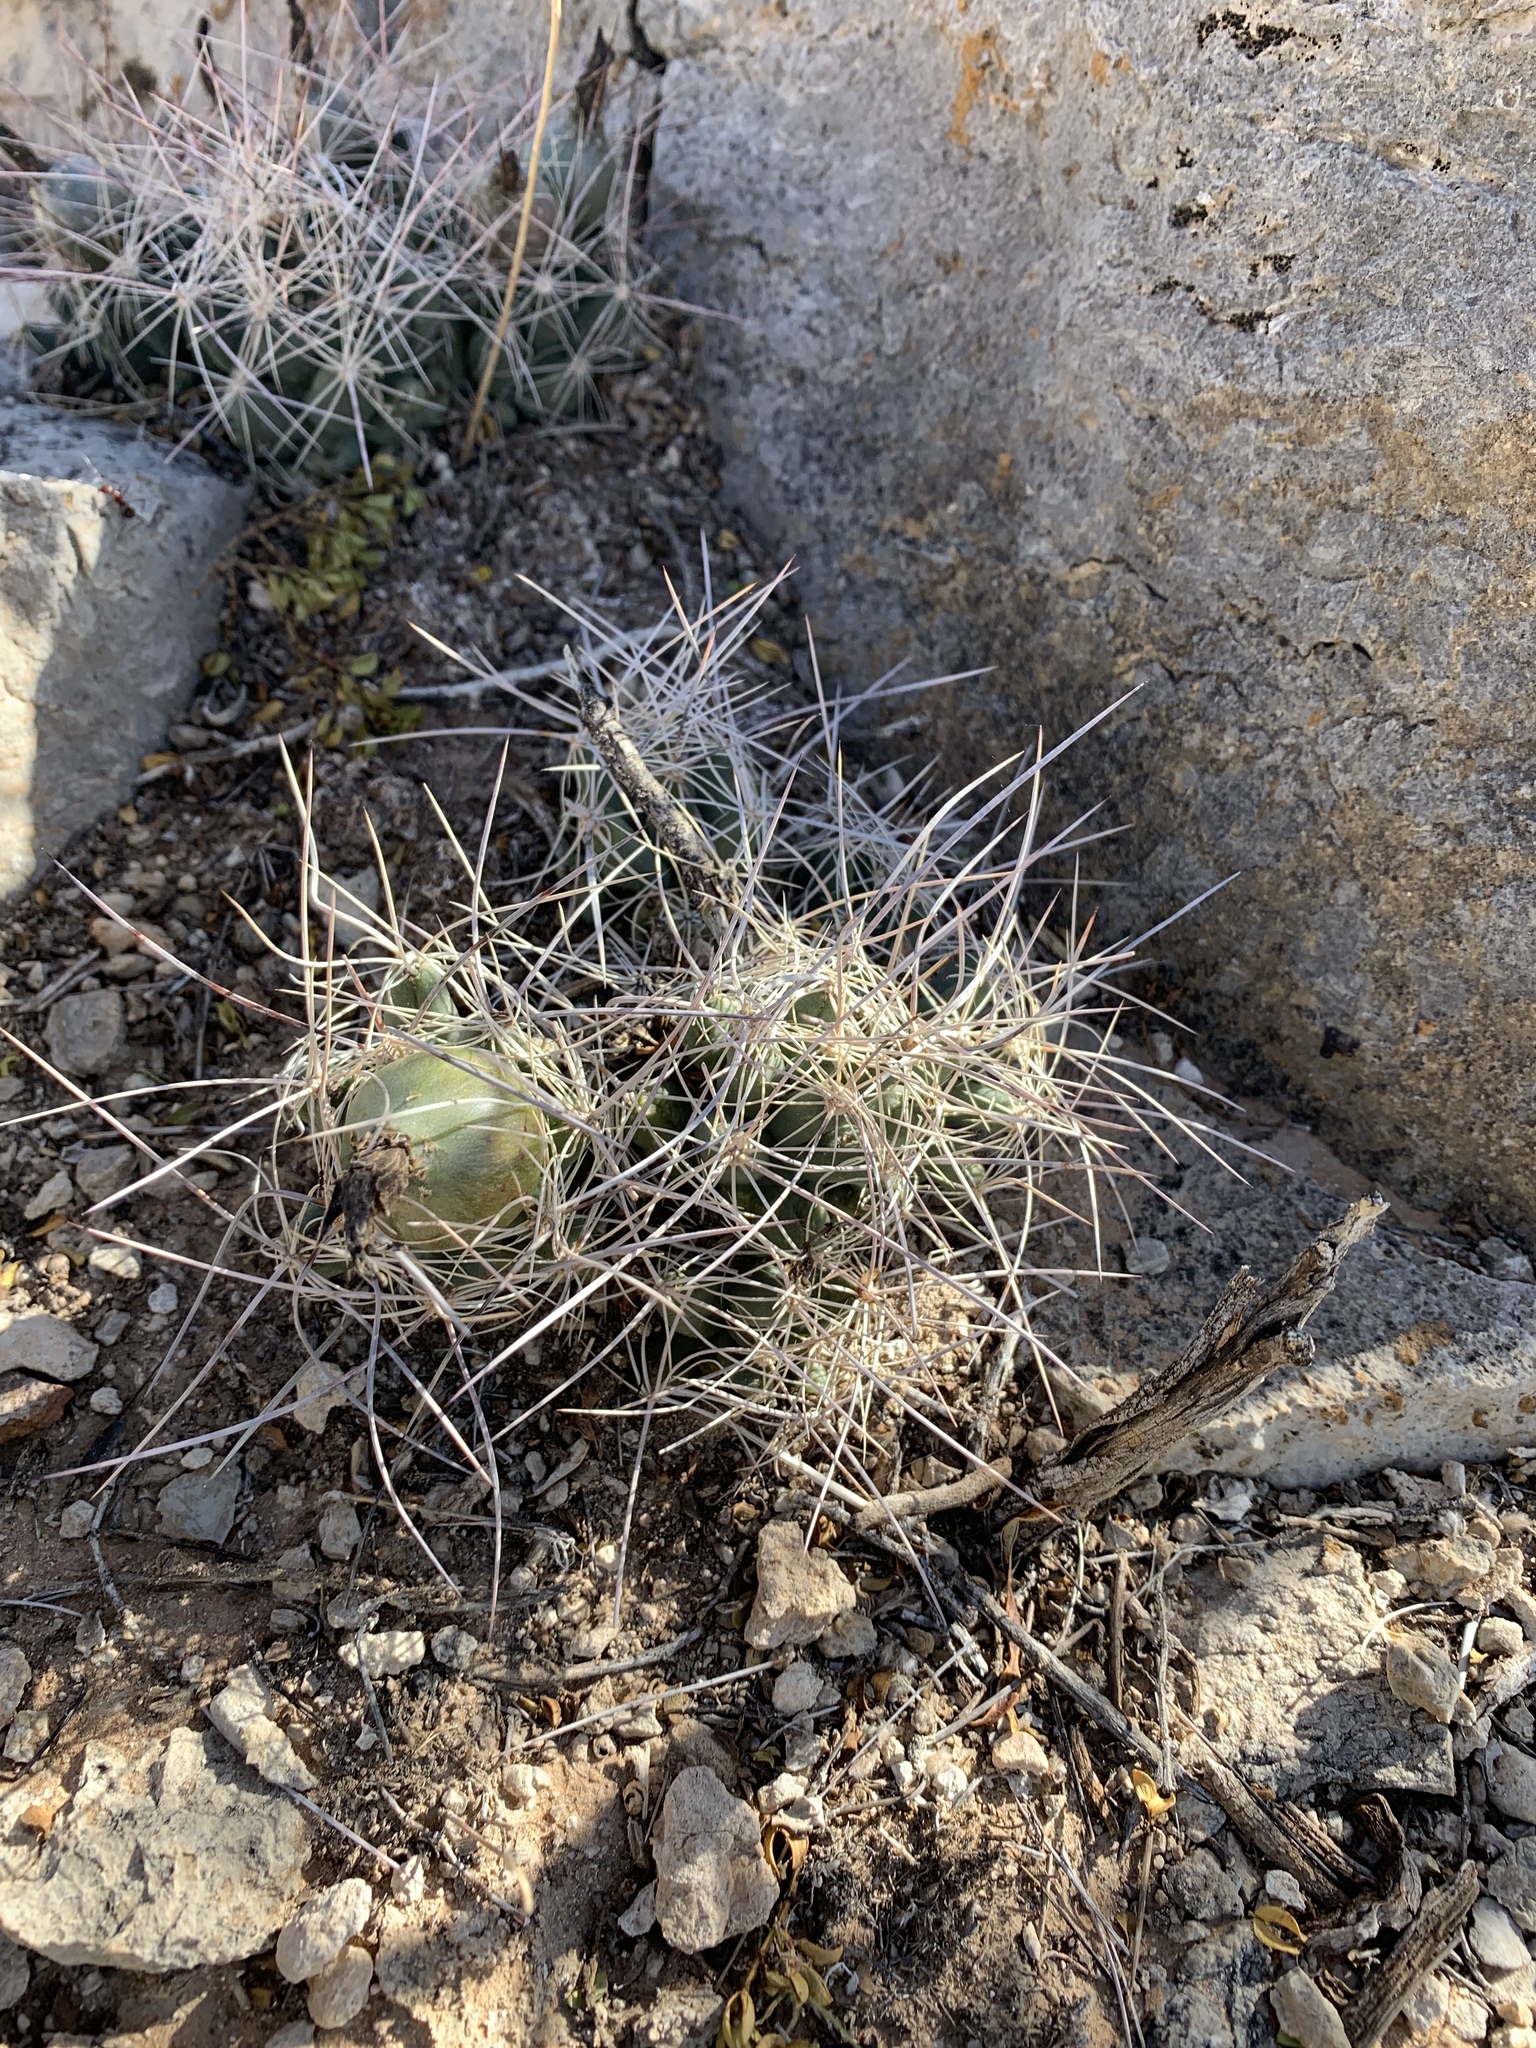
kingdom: Plantae
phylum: Tracheophyta
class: Magnoliopsida
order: Caryophyllales
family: Cactaceae
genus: Coryphantha
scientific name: Coryphantha macromeris
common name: Nipple beehive cactus
